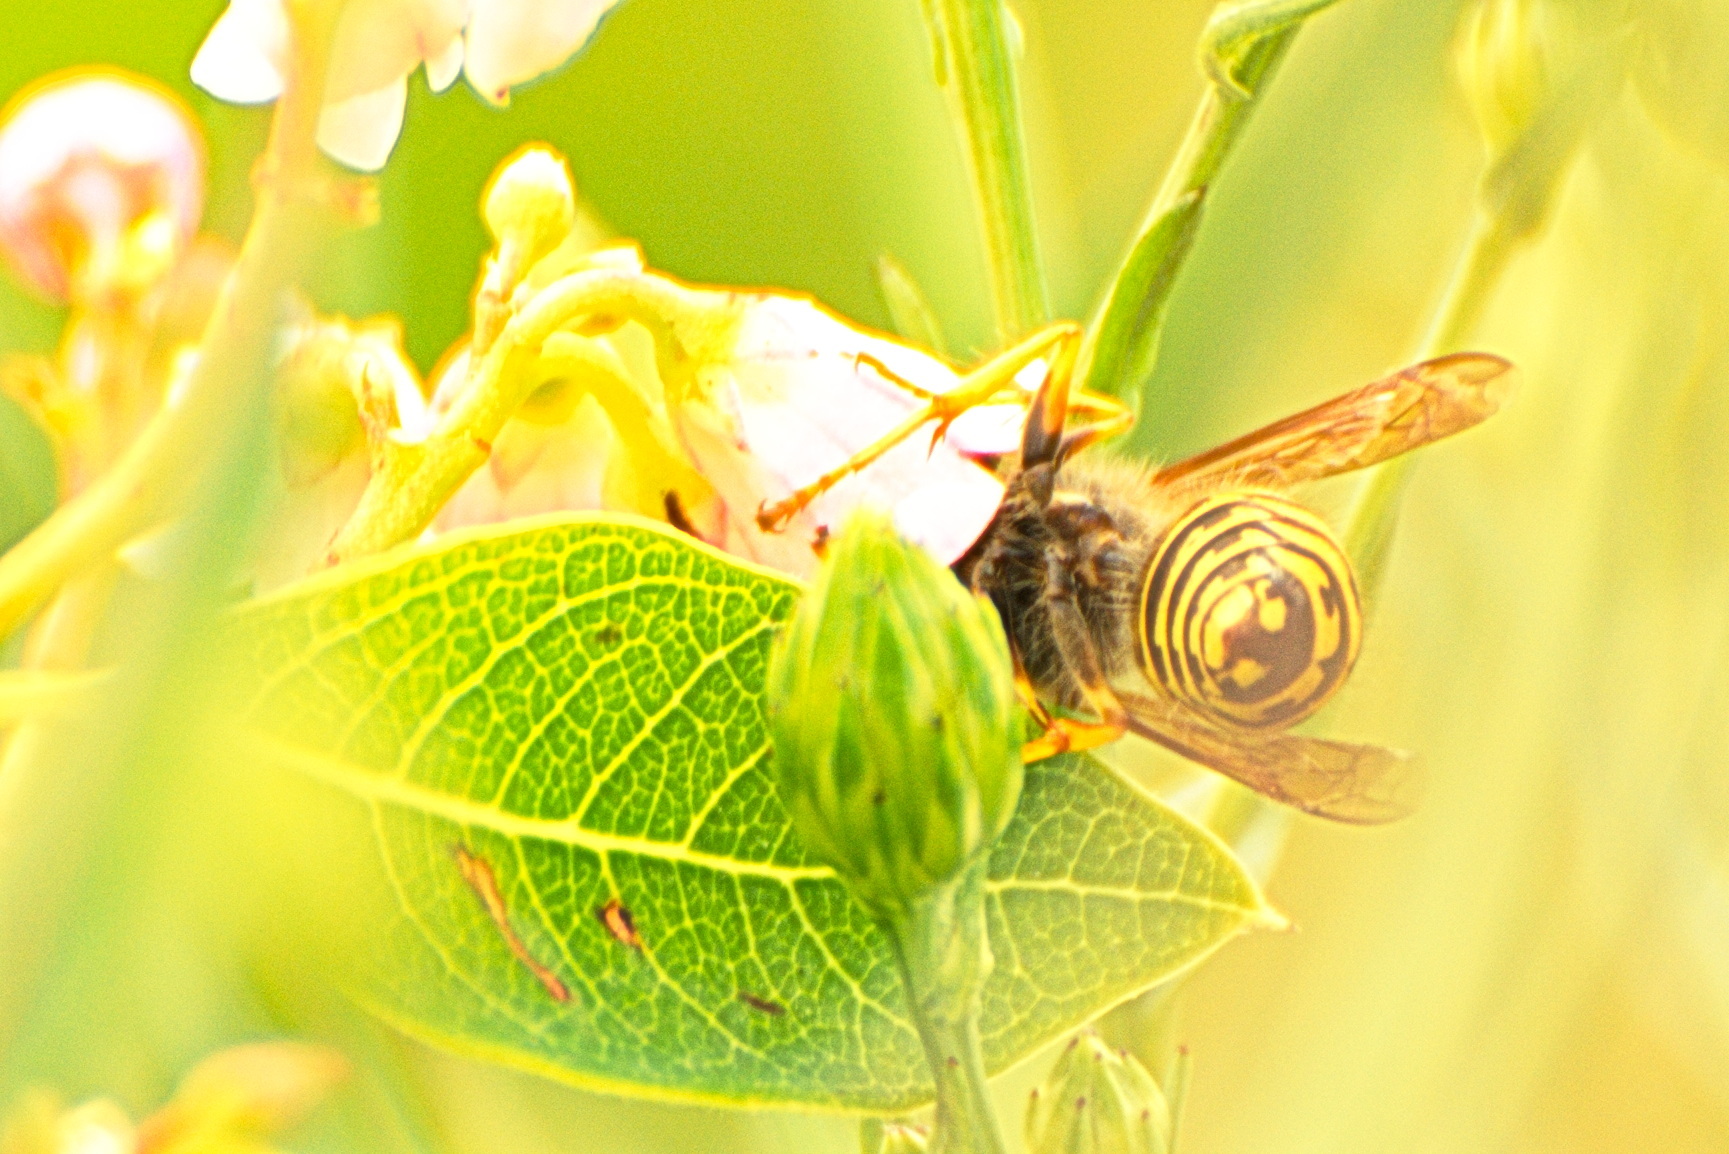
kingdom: Animalia
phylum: Arthropoda
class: Insecta
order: Hymenoptera
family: Vespidae
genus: Dolichovespula
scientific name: Dolichovespula arenaria
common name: Aerial yellowjacket
